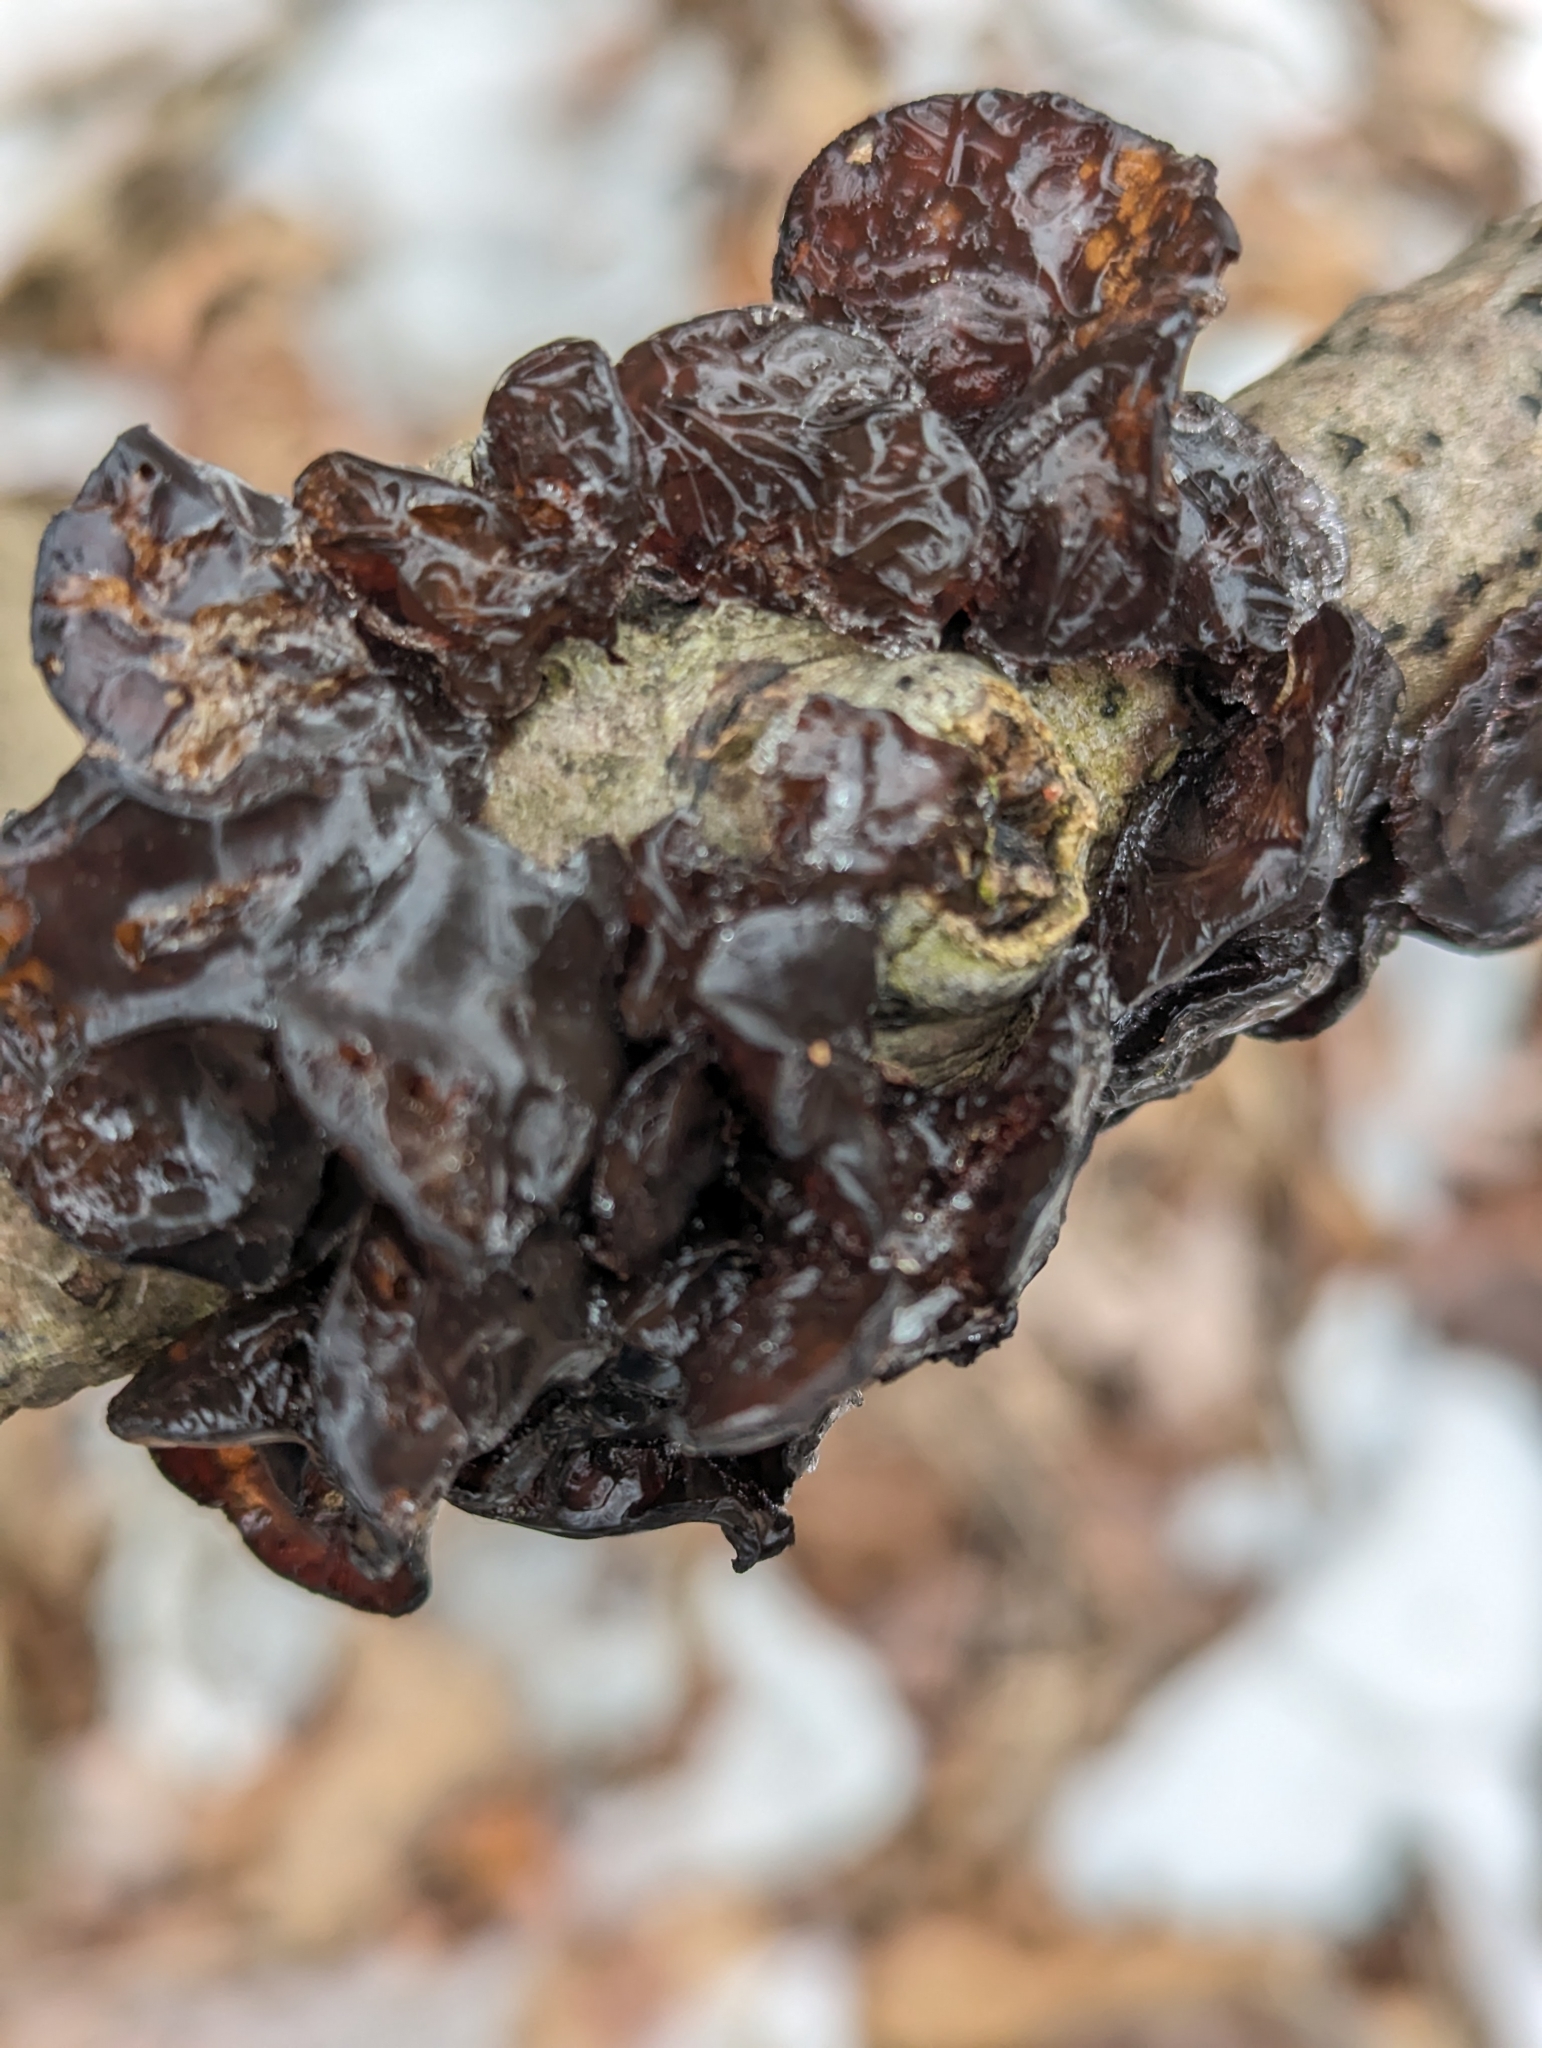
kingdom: Fungi
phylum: Basidiomycota
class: Agaricomycetes
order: Auriculariales
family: Auriculariaceae
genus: Exidia
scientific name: Exidia
